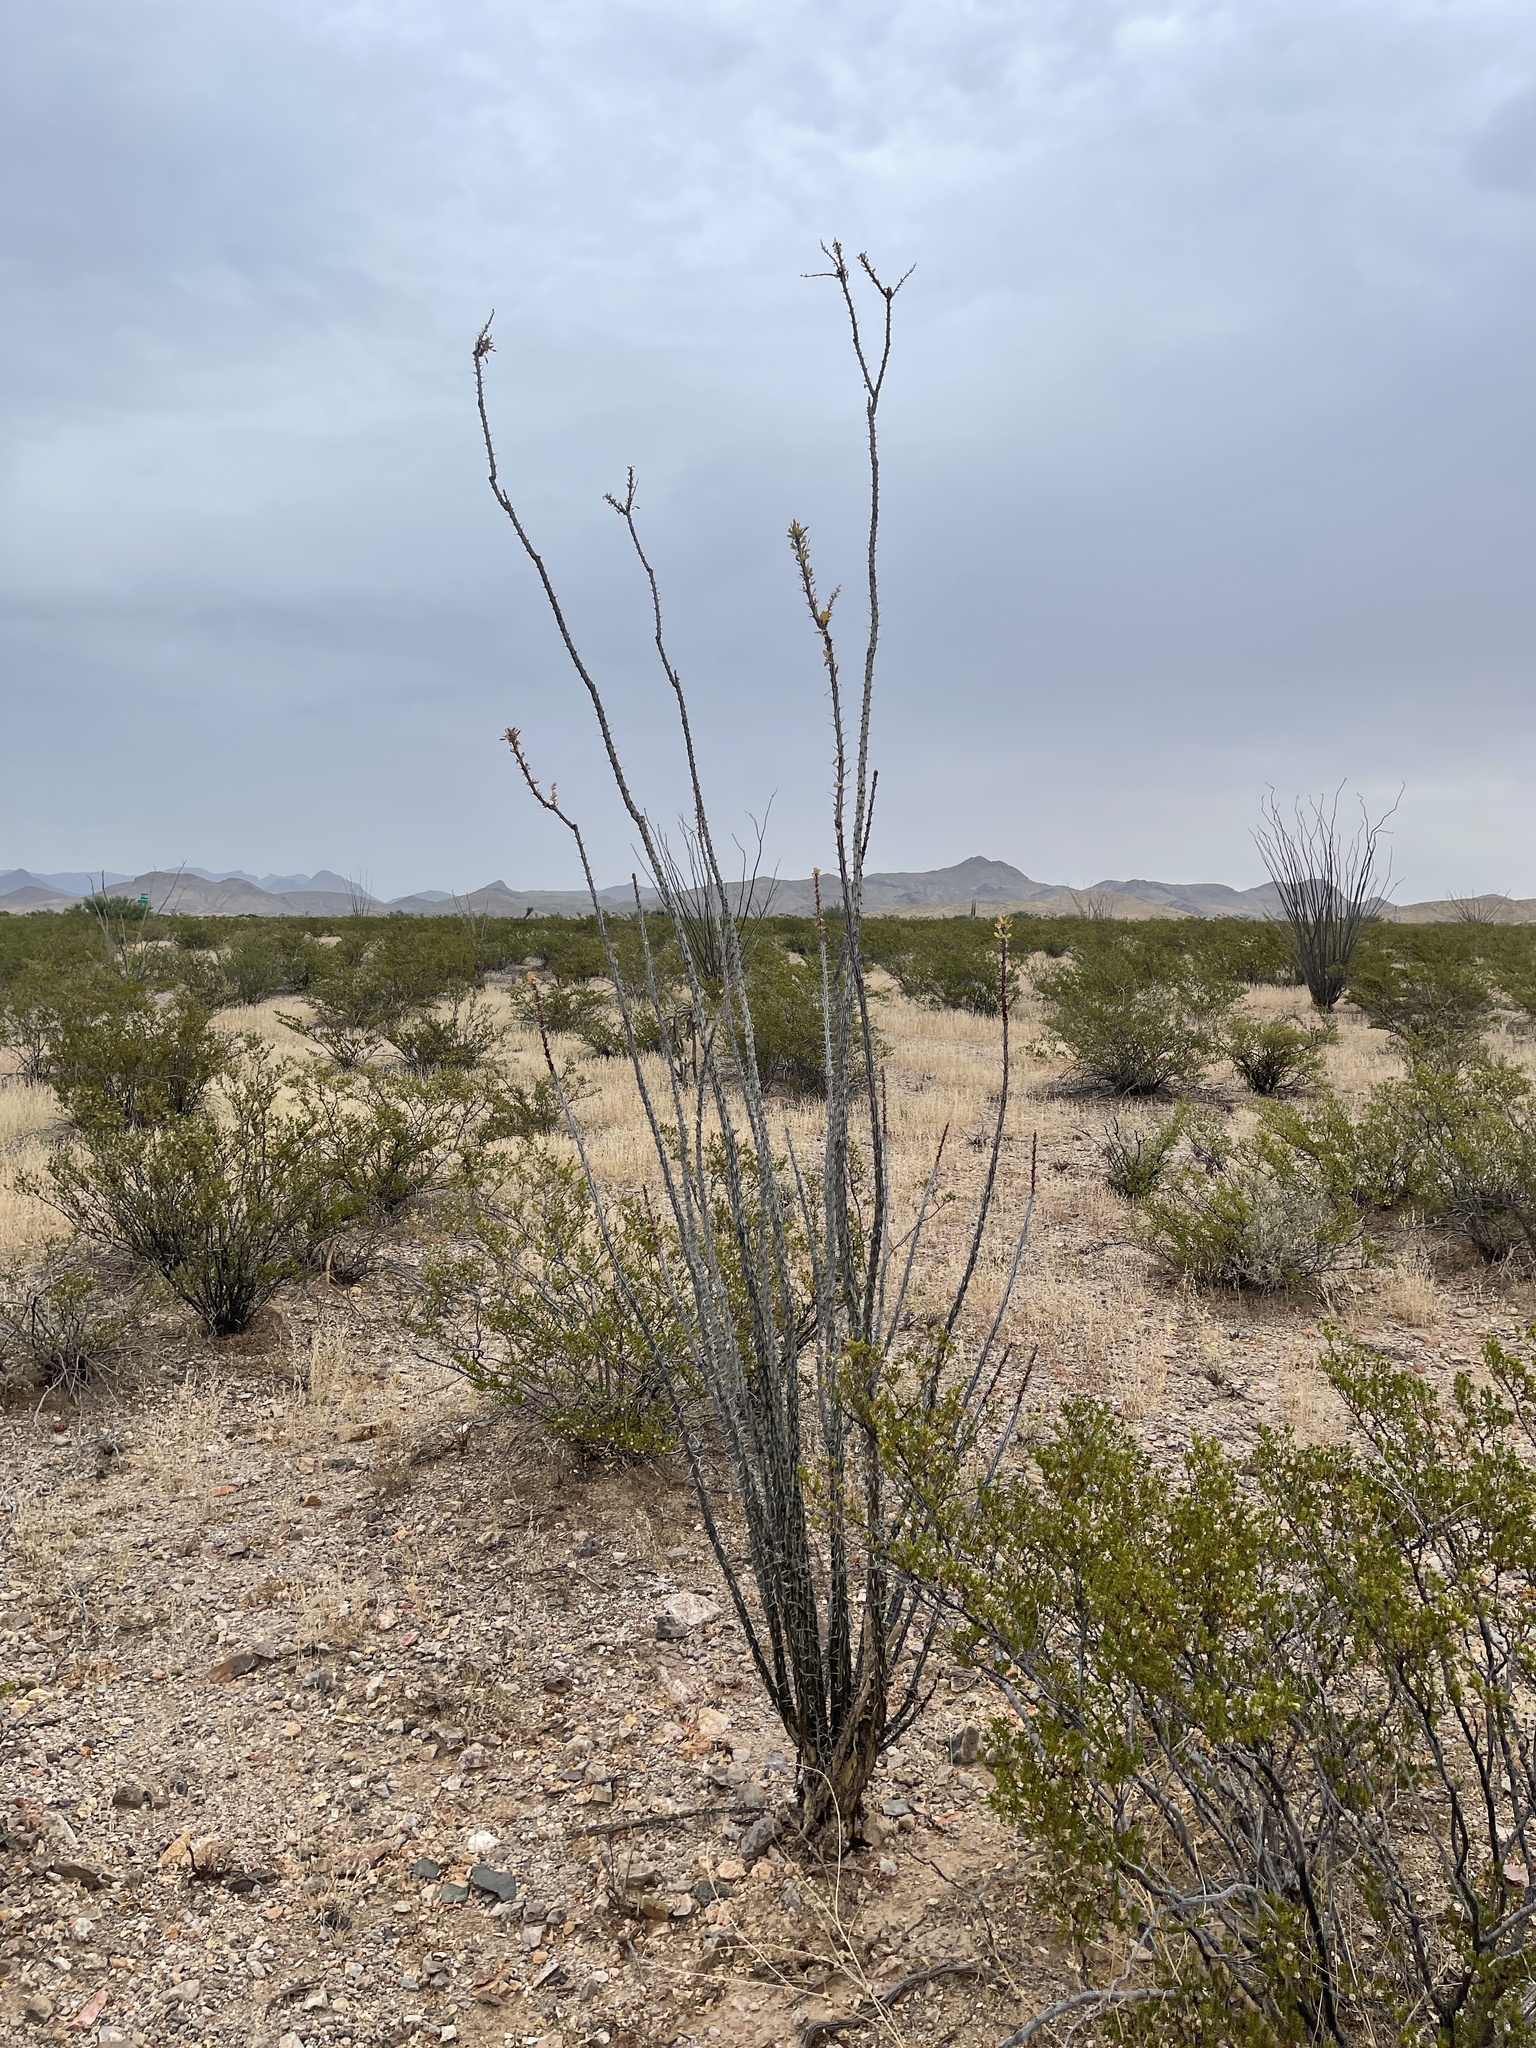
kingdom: Plantae
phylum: Tracheophyta
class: Magnoliopsida
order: Ericales
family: Fouquieriaceae
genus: Fouquieria
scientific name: Fouquieria splendens
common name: Vine-cactus
